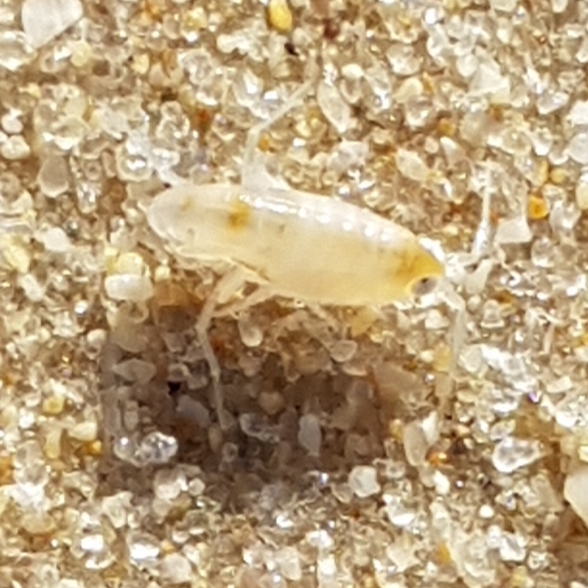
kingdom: Animalia
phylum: Arthropoda
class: Malacostraca
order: Amphipoda
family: Talitridae
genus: Talitrus
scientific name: Talitrus saltator
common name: Sand hopper
